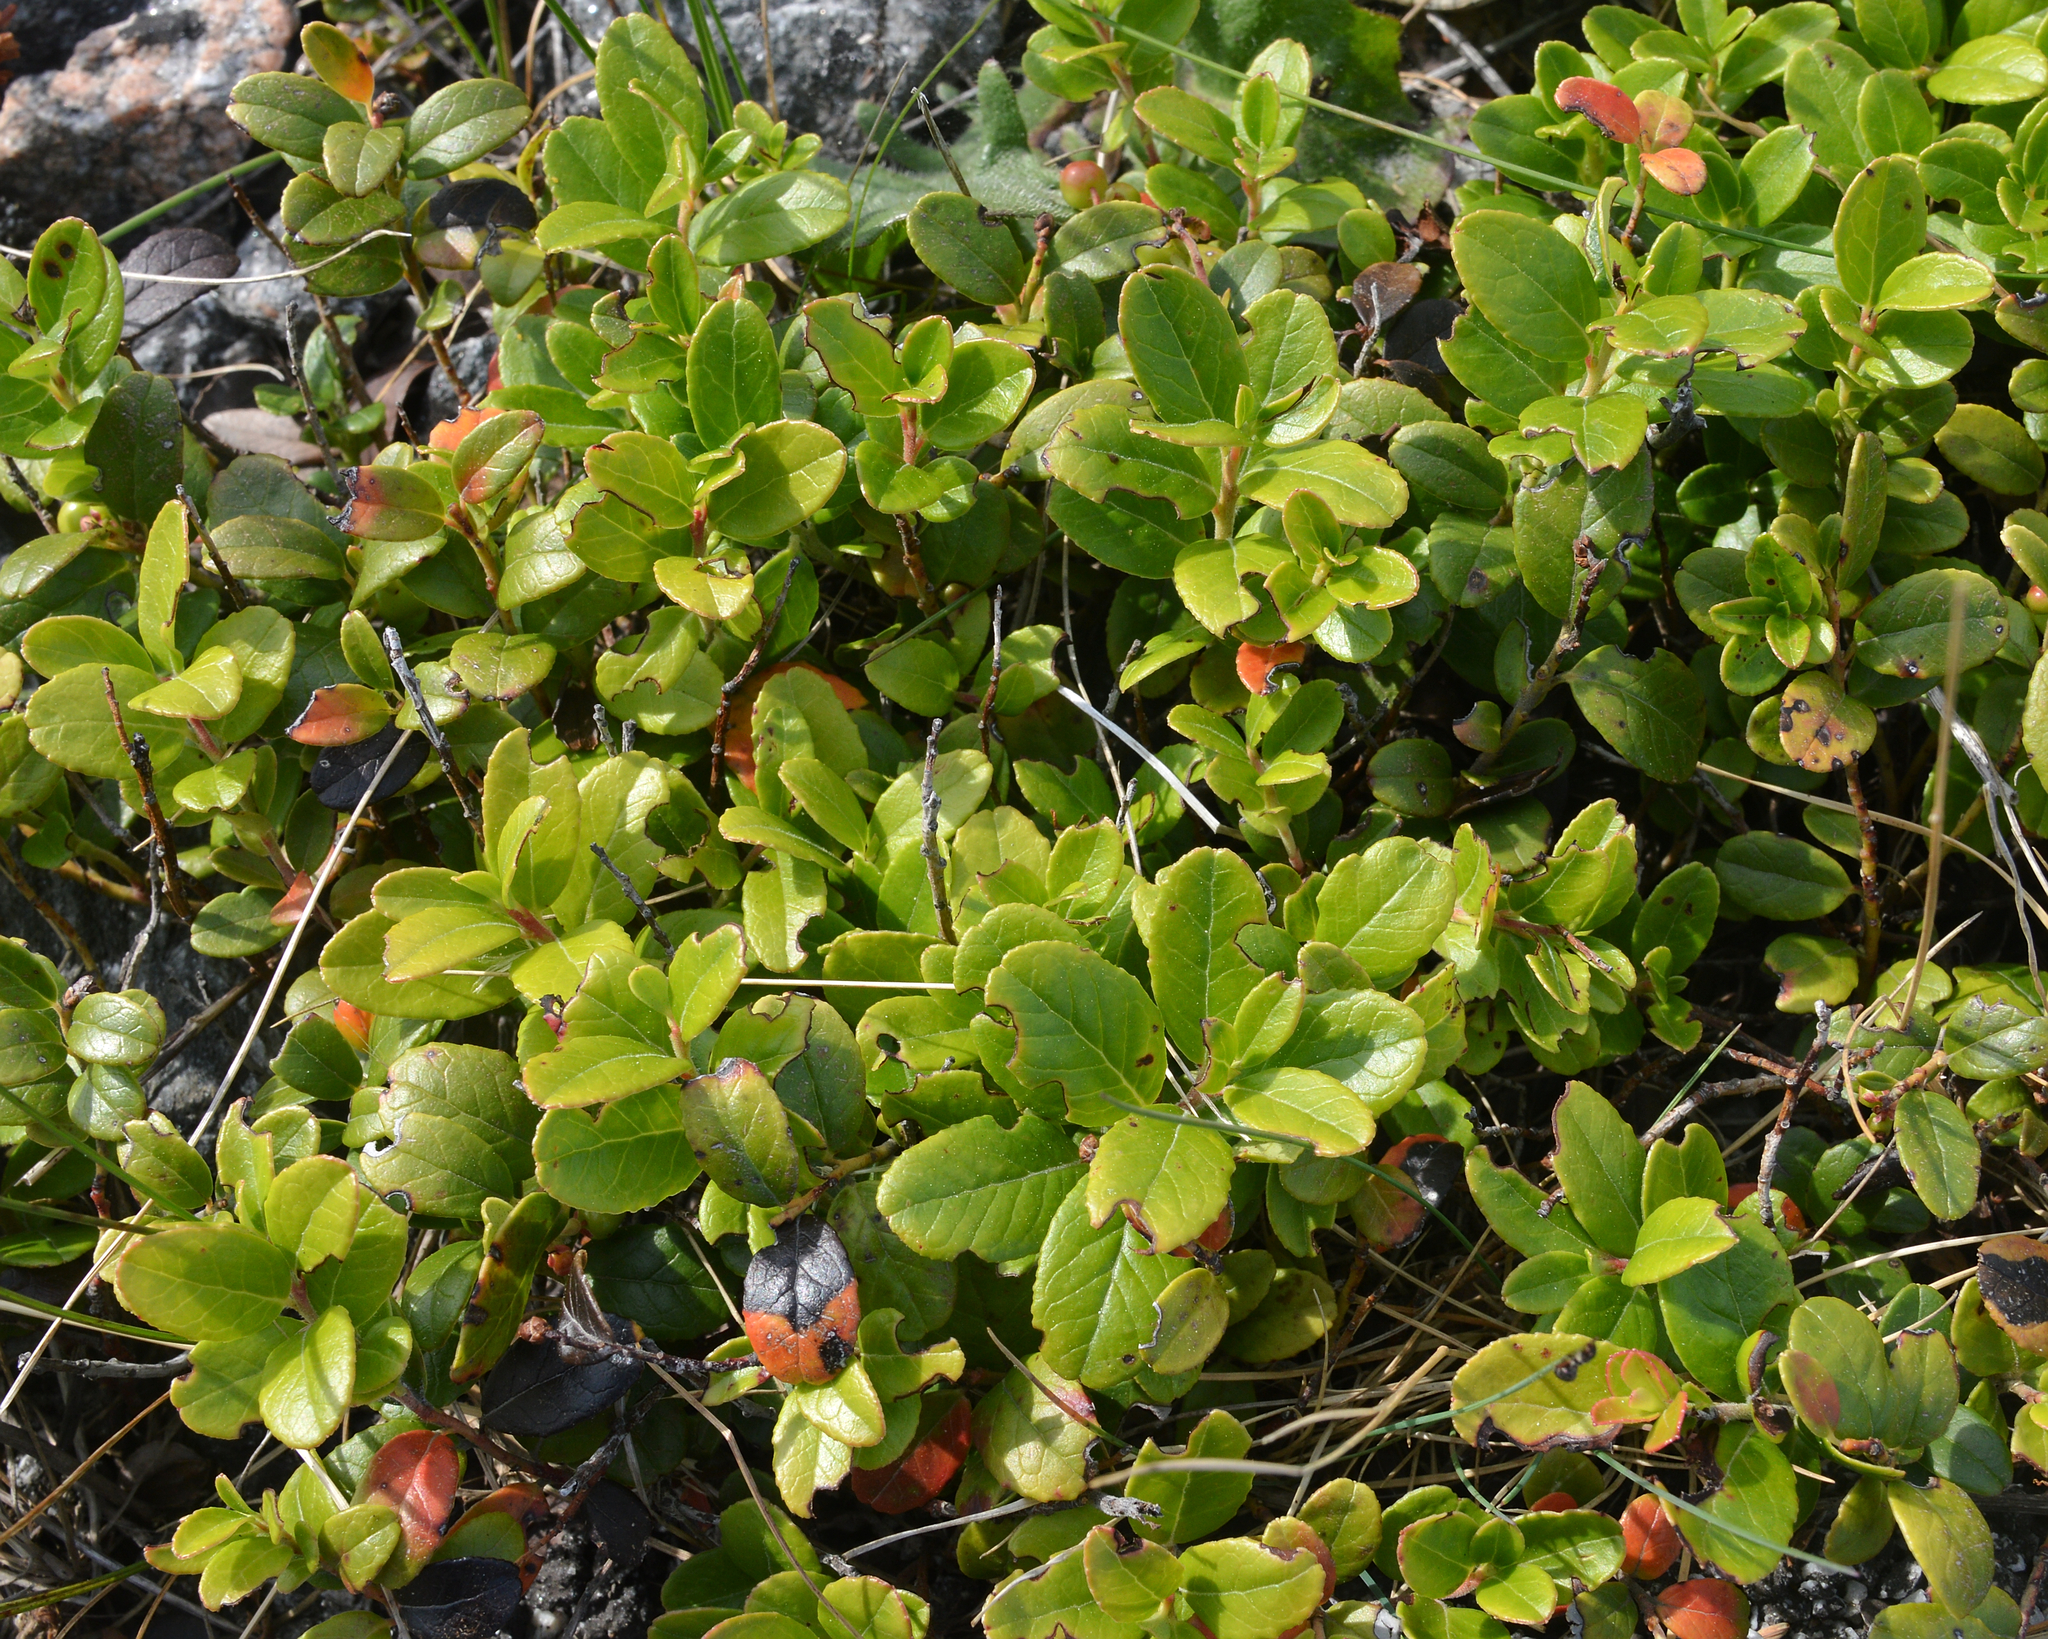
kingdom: Plantae
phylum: Tracheophyta
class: Magnoliopsida
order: Ericales
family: Ericaceae
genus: Vaccinium
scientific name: Vaccinium vitis-idaea
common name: Cowberry
